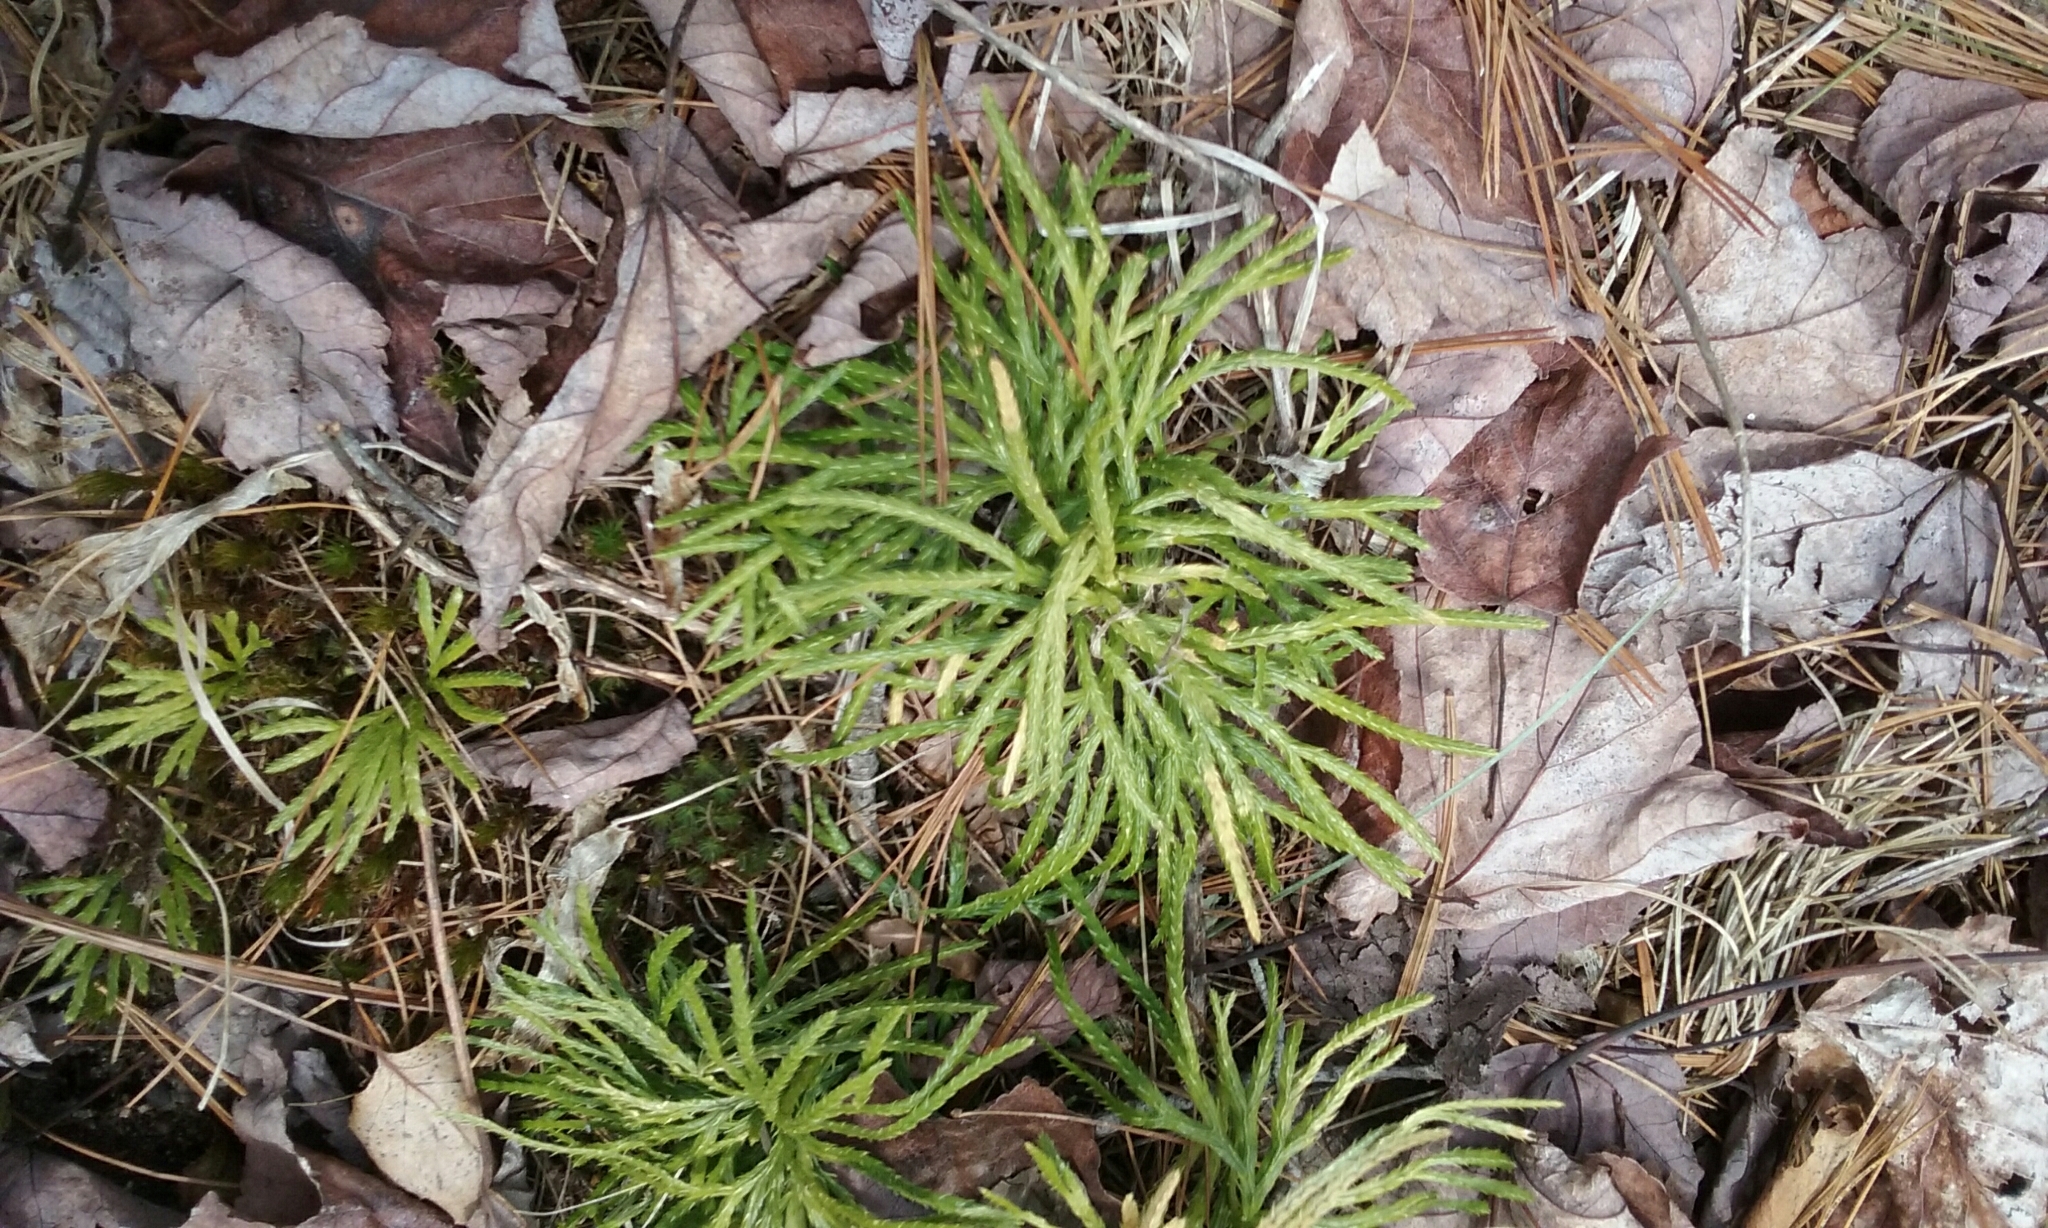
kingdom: Plantae
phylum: Tracheophyta
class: Lycopodiopsida
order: Lycopodiales
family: Lycopodiaceae
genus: Diphasiastrum
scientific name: Diphasiastrum digitatum
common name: Southern running-pine
